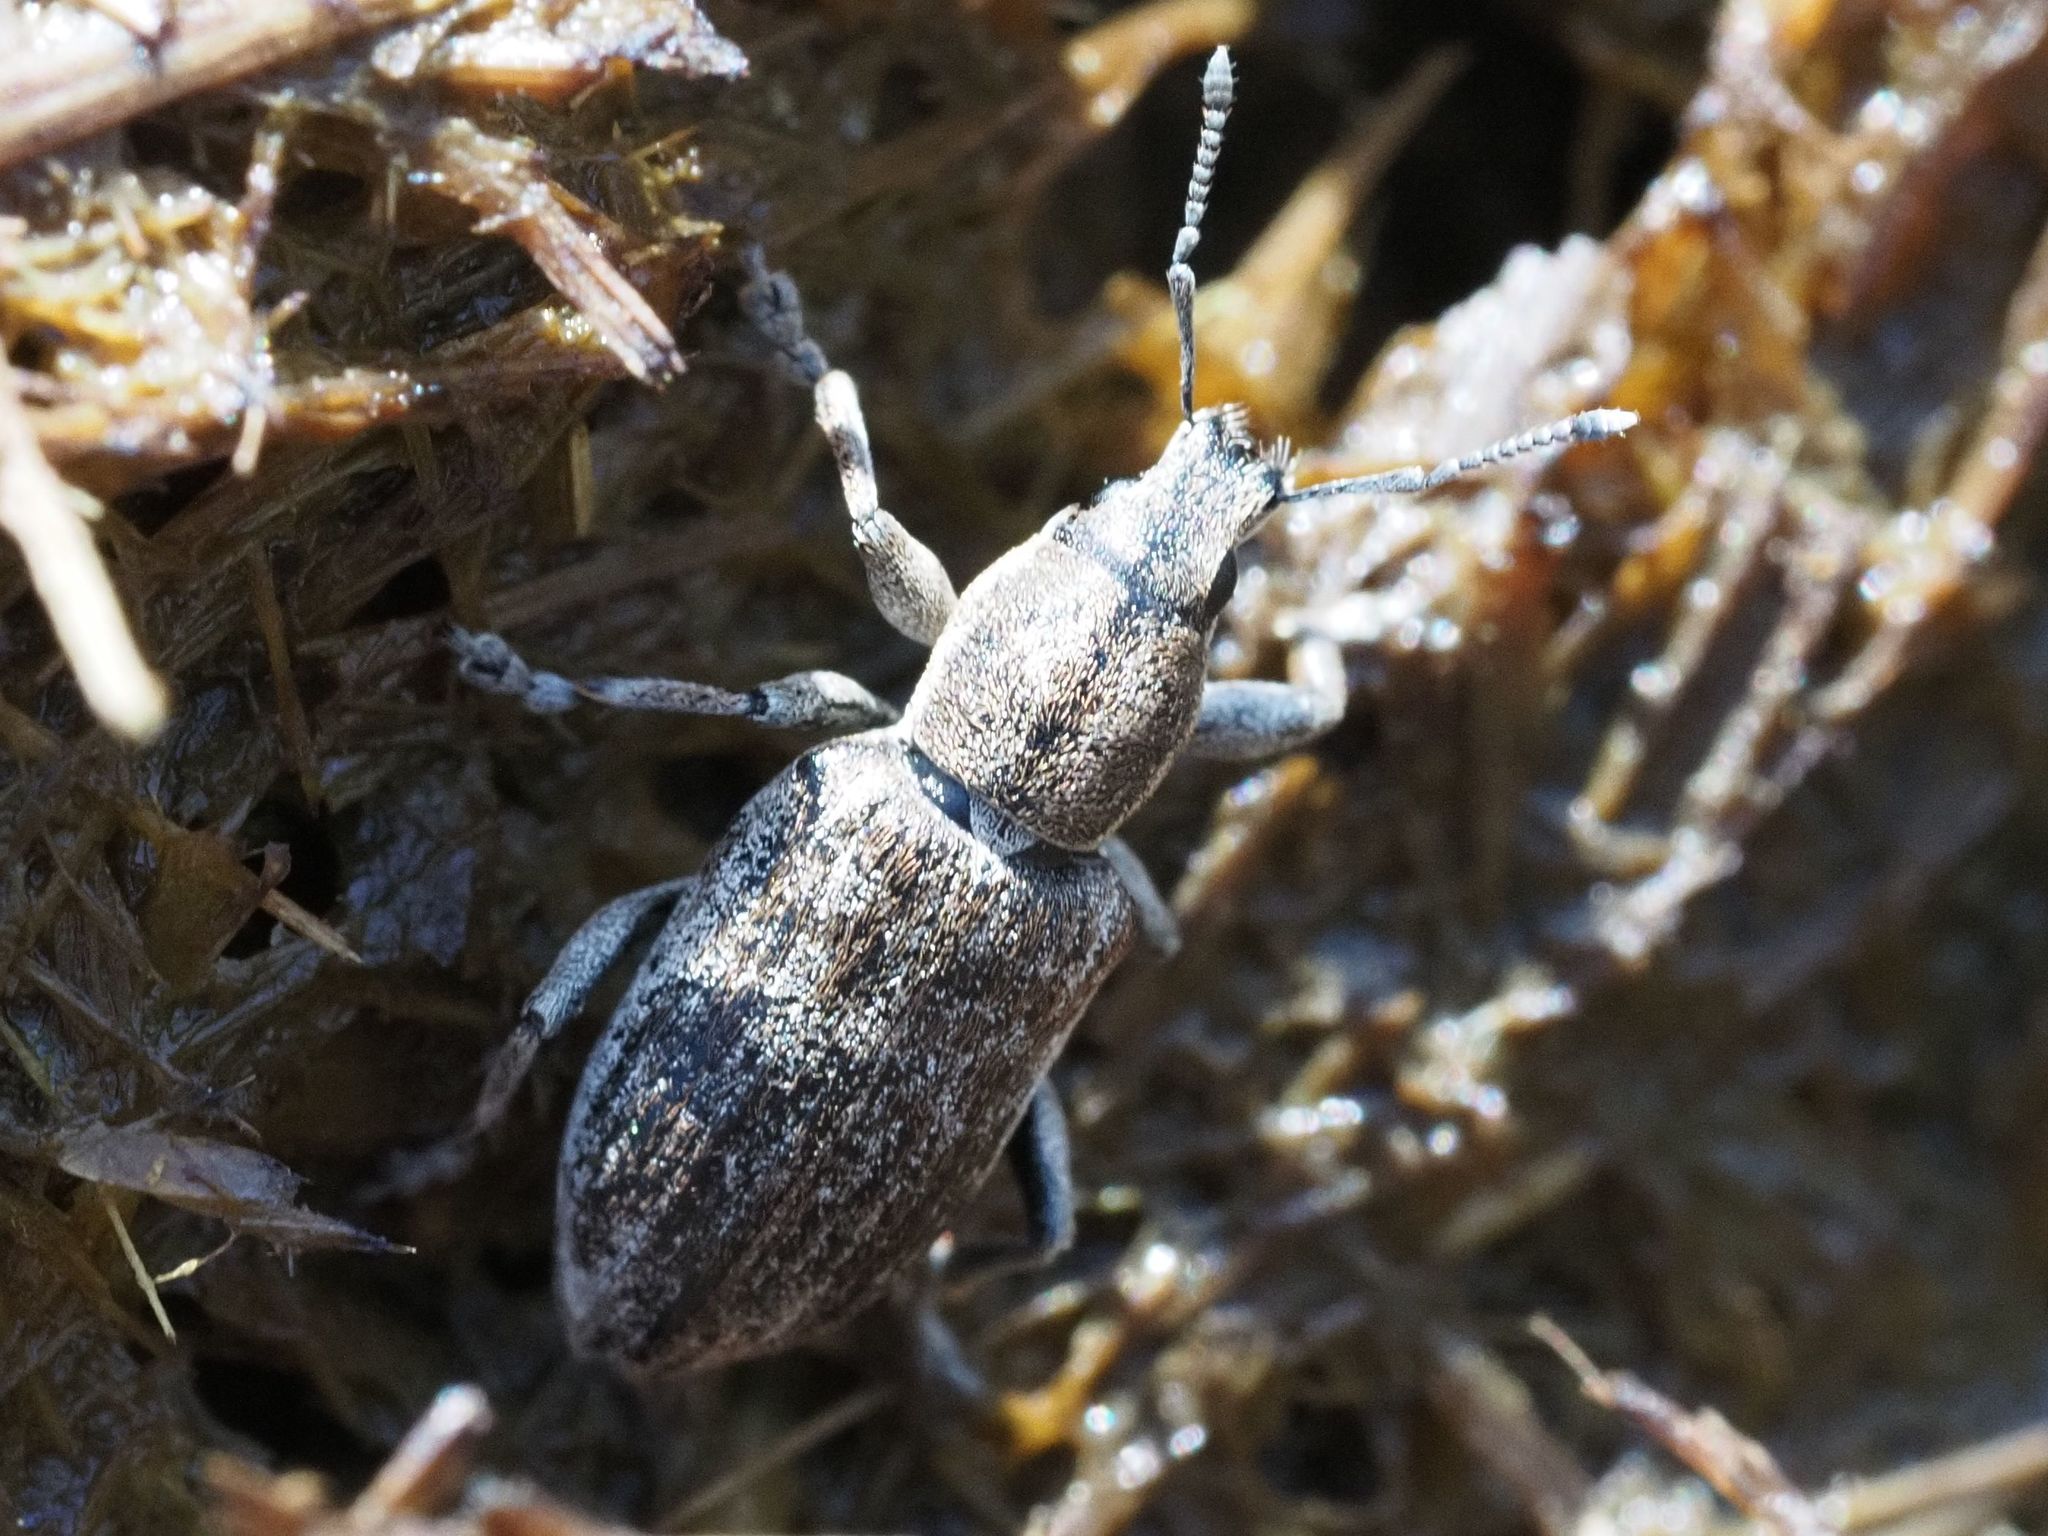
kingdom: Animalia
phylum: Arthropoda
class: Insecta
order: Coleoptera
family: Curculionidae
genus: Tanymecus
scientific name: Tanymecus palliatus
